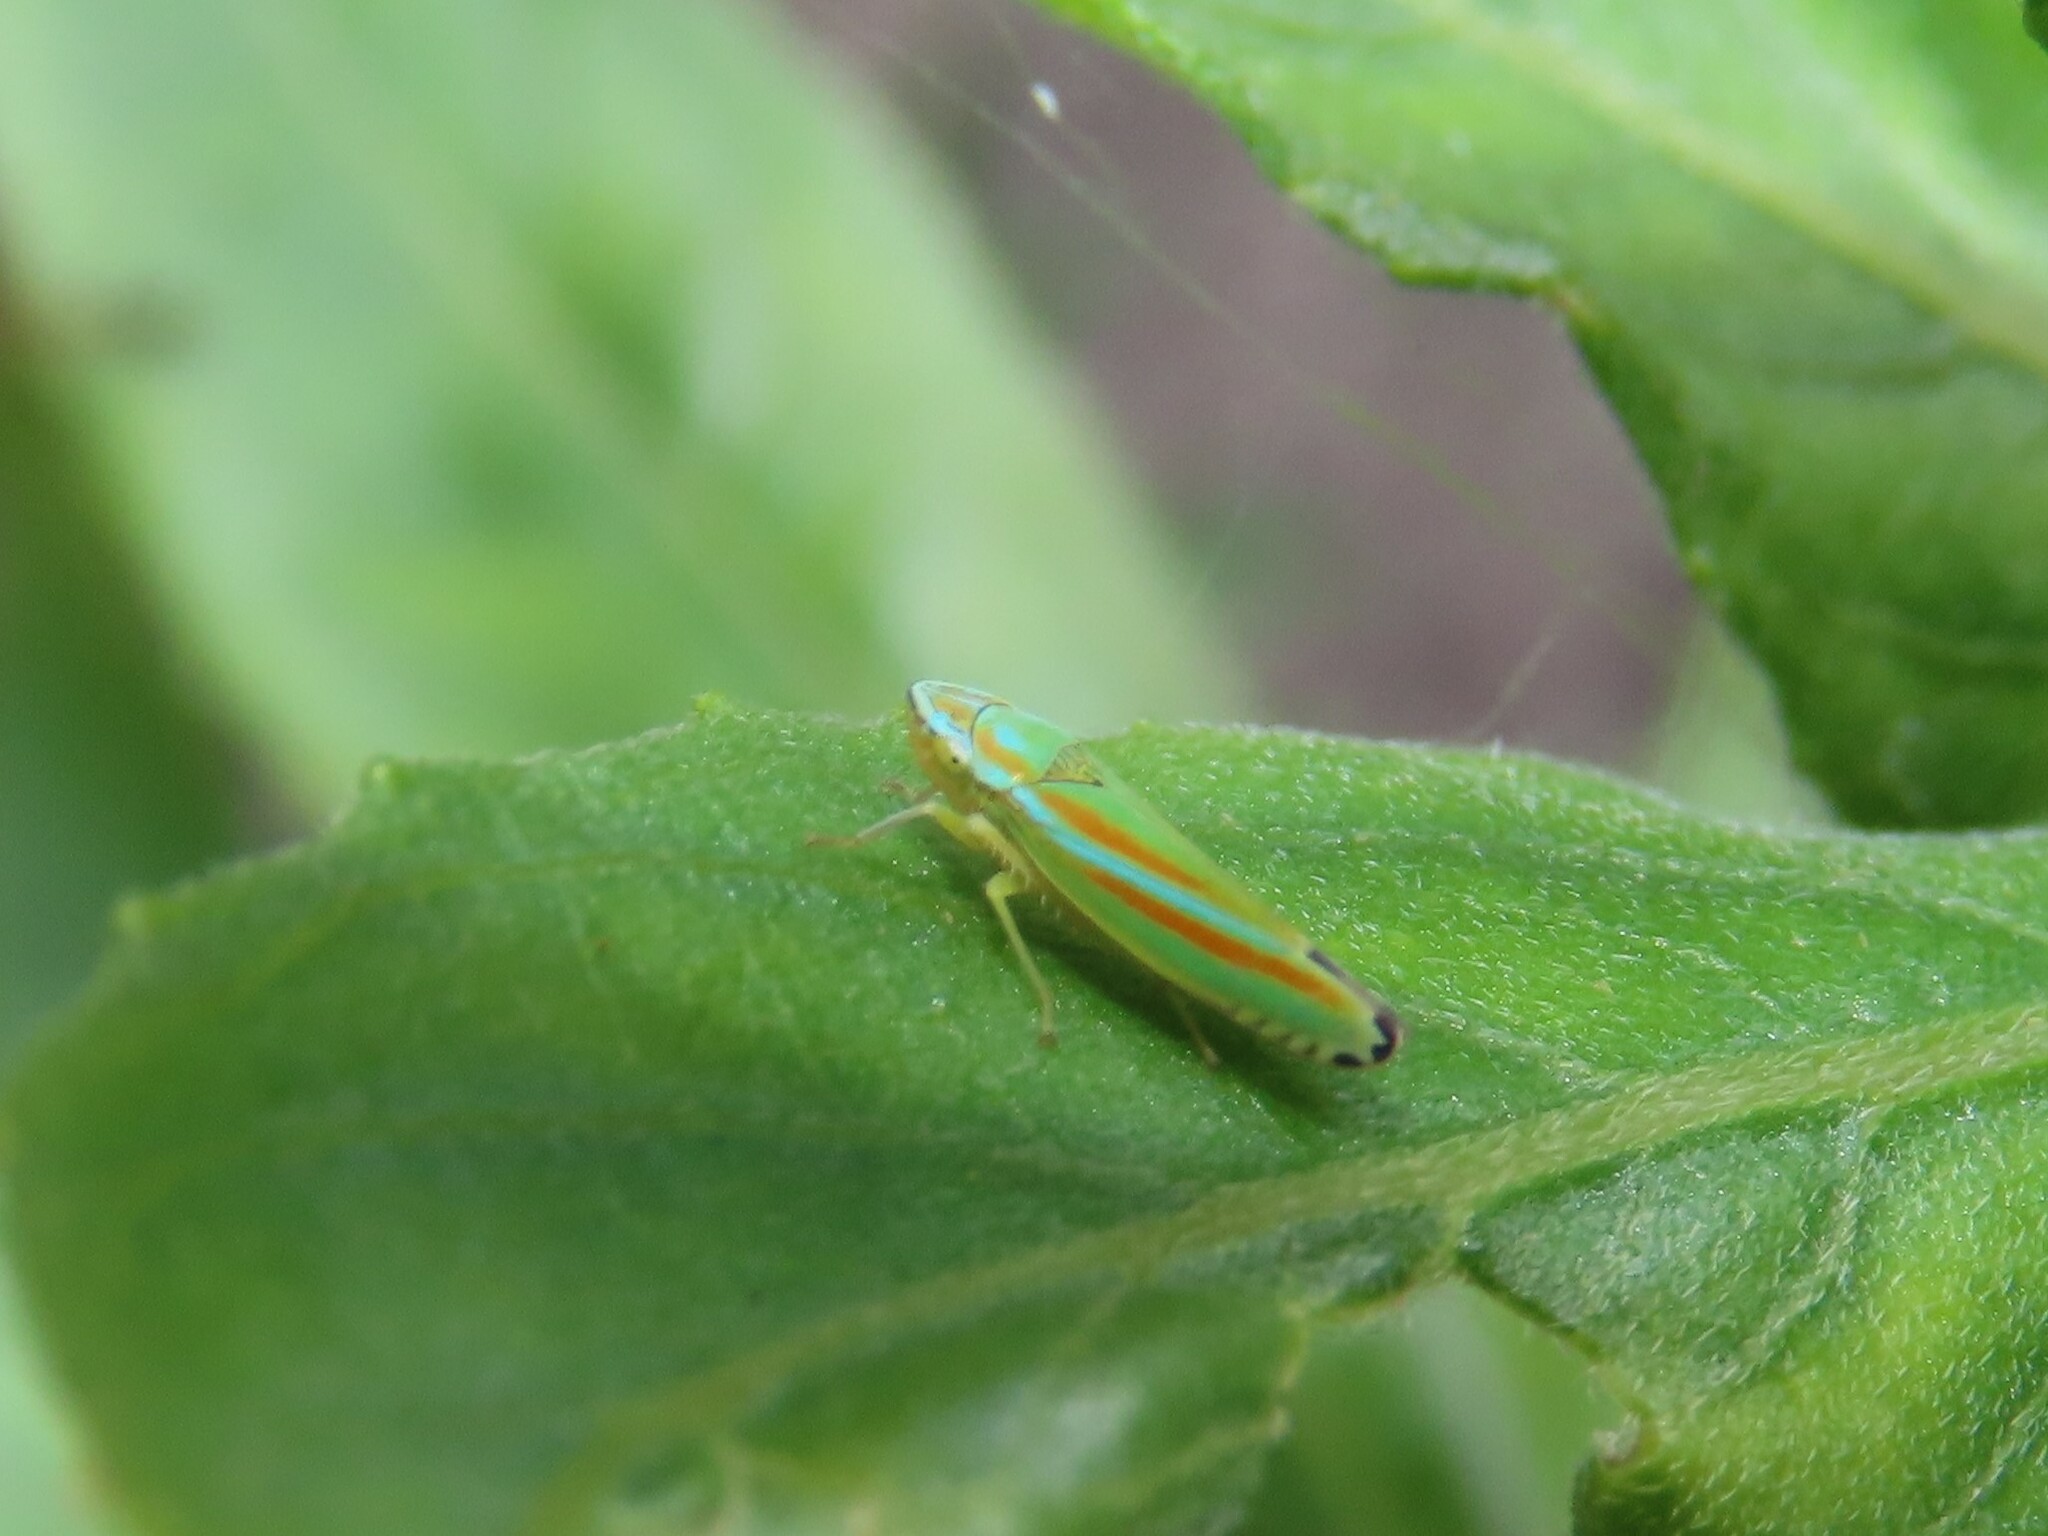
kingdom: Animalia
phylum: Arthropoda
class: Insecta
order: Hemiptera
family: Cicadellidae
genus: Graphocephala
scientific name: Graphocephala versuta
